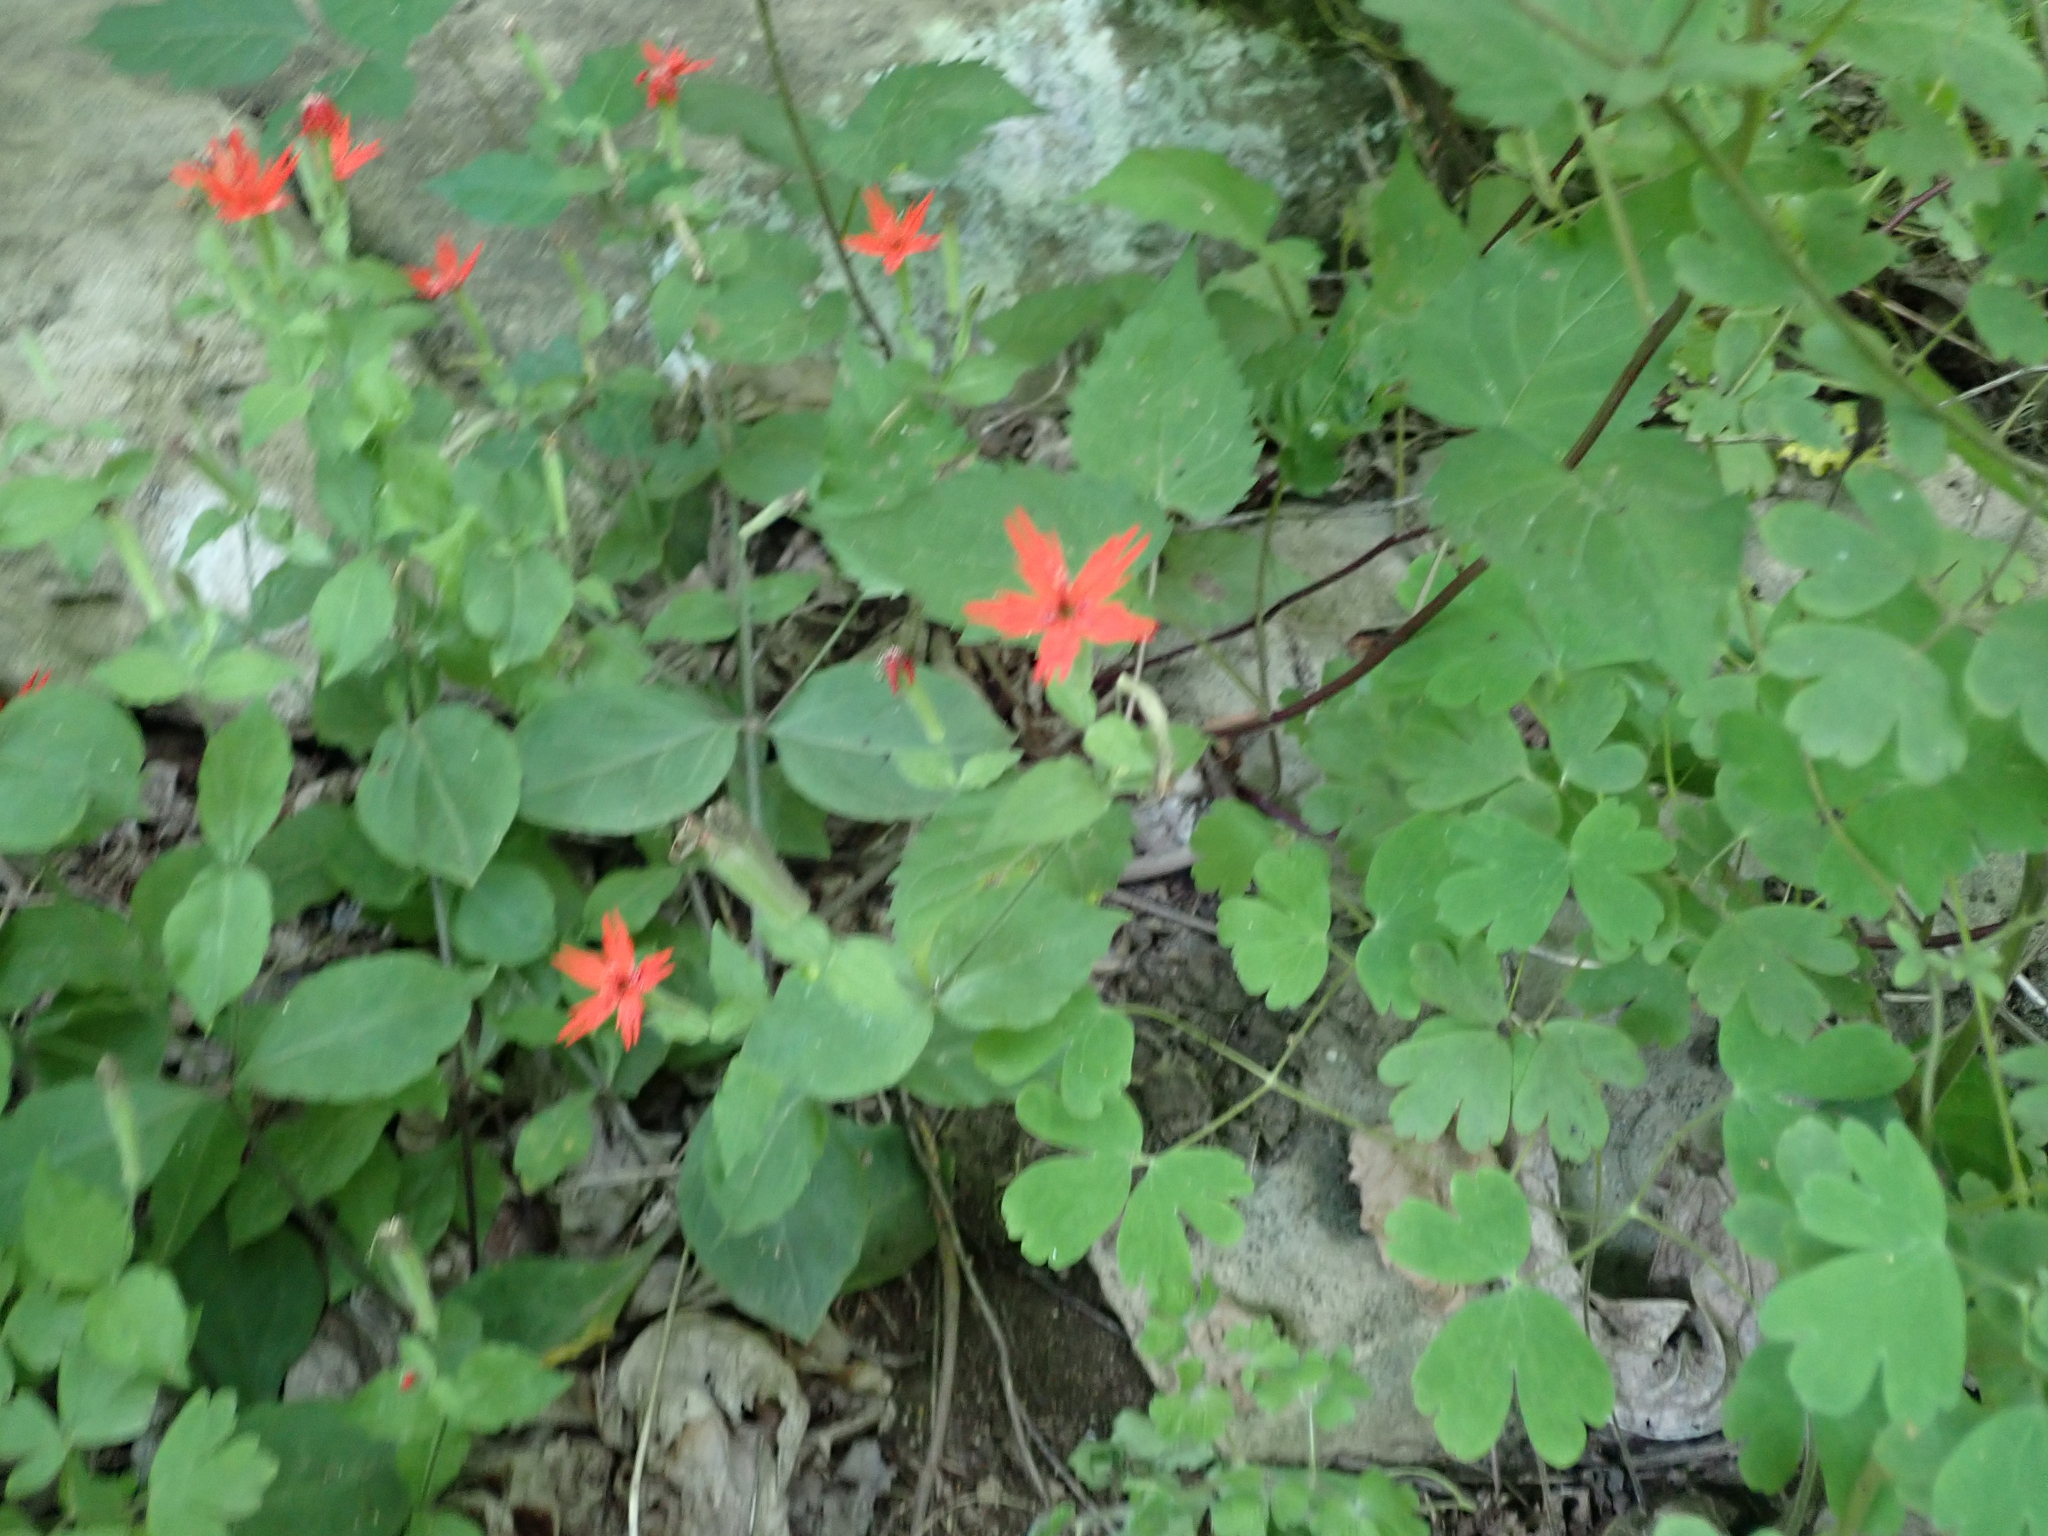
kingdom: Plantae
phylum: Tracheophyta
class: Magnoliopsida
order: Caryophyllales
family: Caryophyllaceae
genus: Silene
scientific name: Silene rotundifolia
